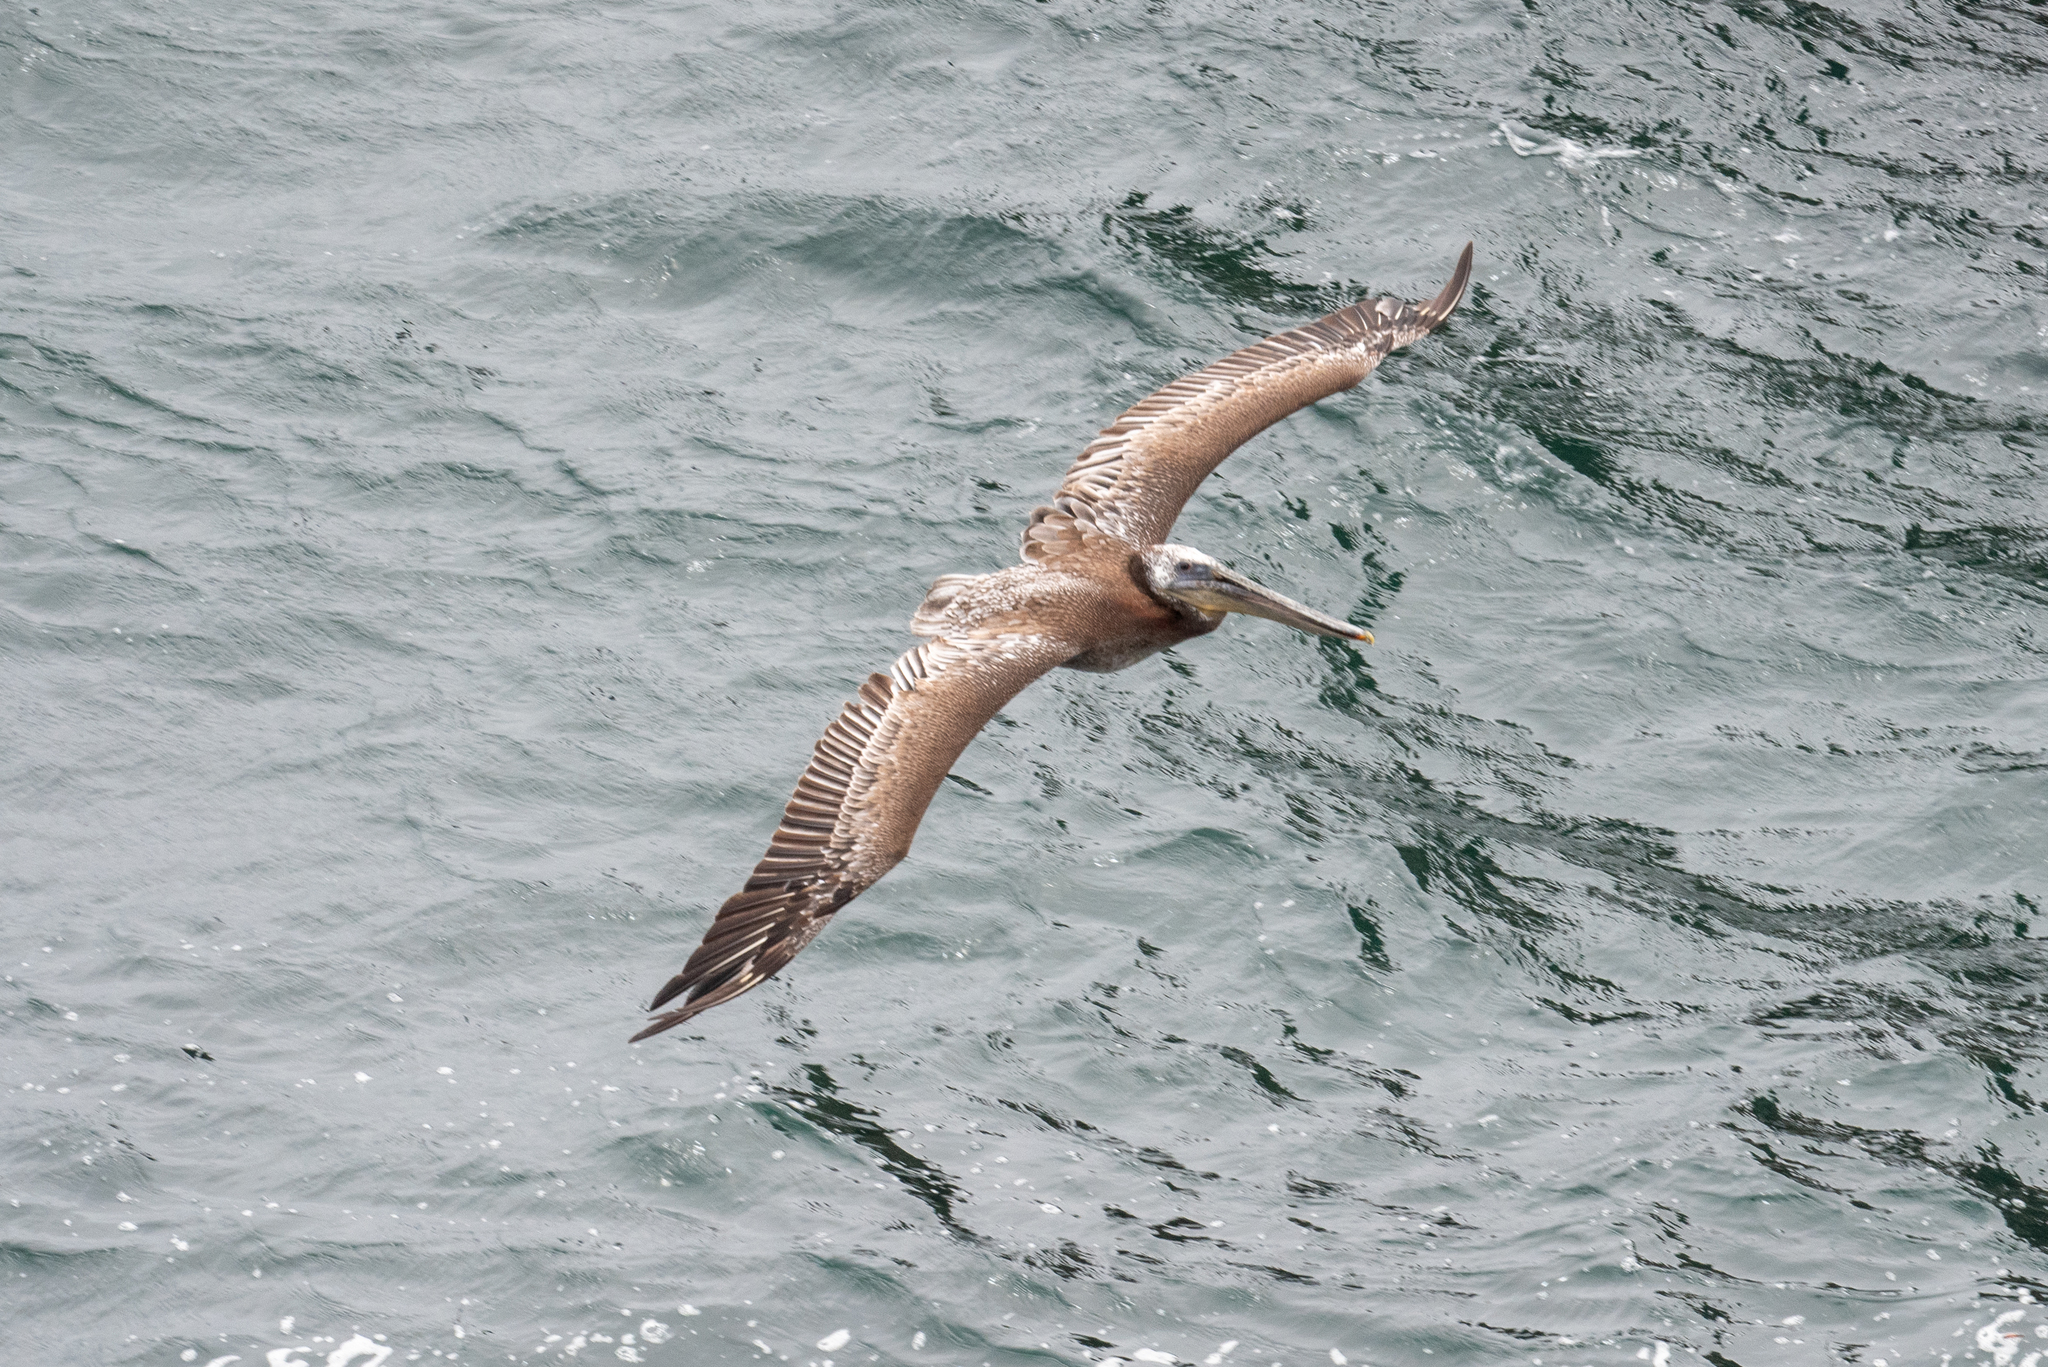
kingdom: Animalia
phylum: Chordata
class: Aves
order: Pelecaniformes
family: Pelecanidae
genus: Pelecanus
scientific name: Pelecanus occidentalis
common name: Brown pelican
